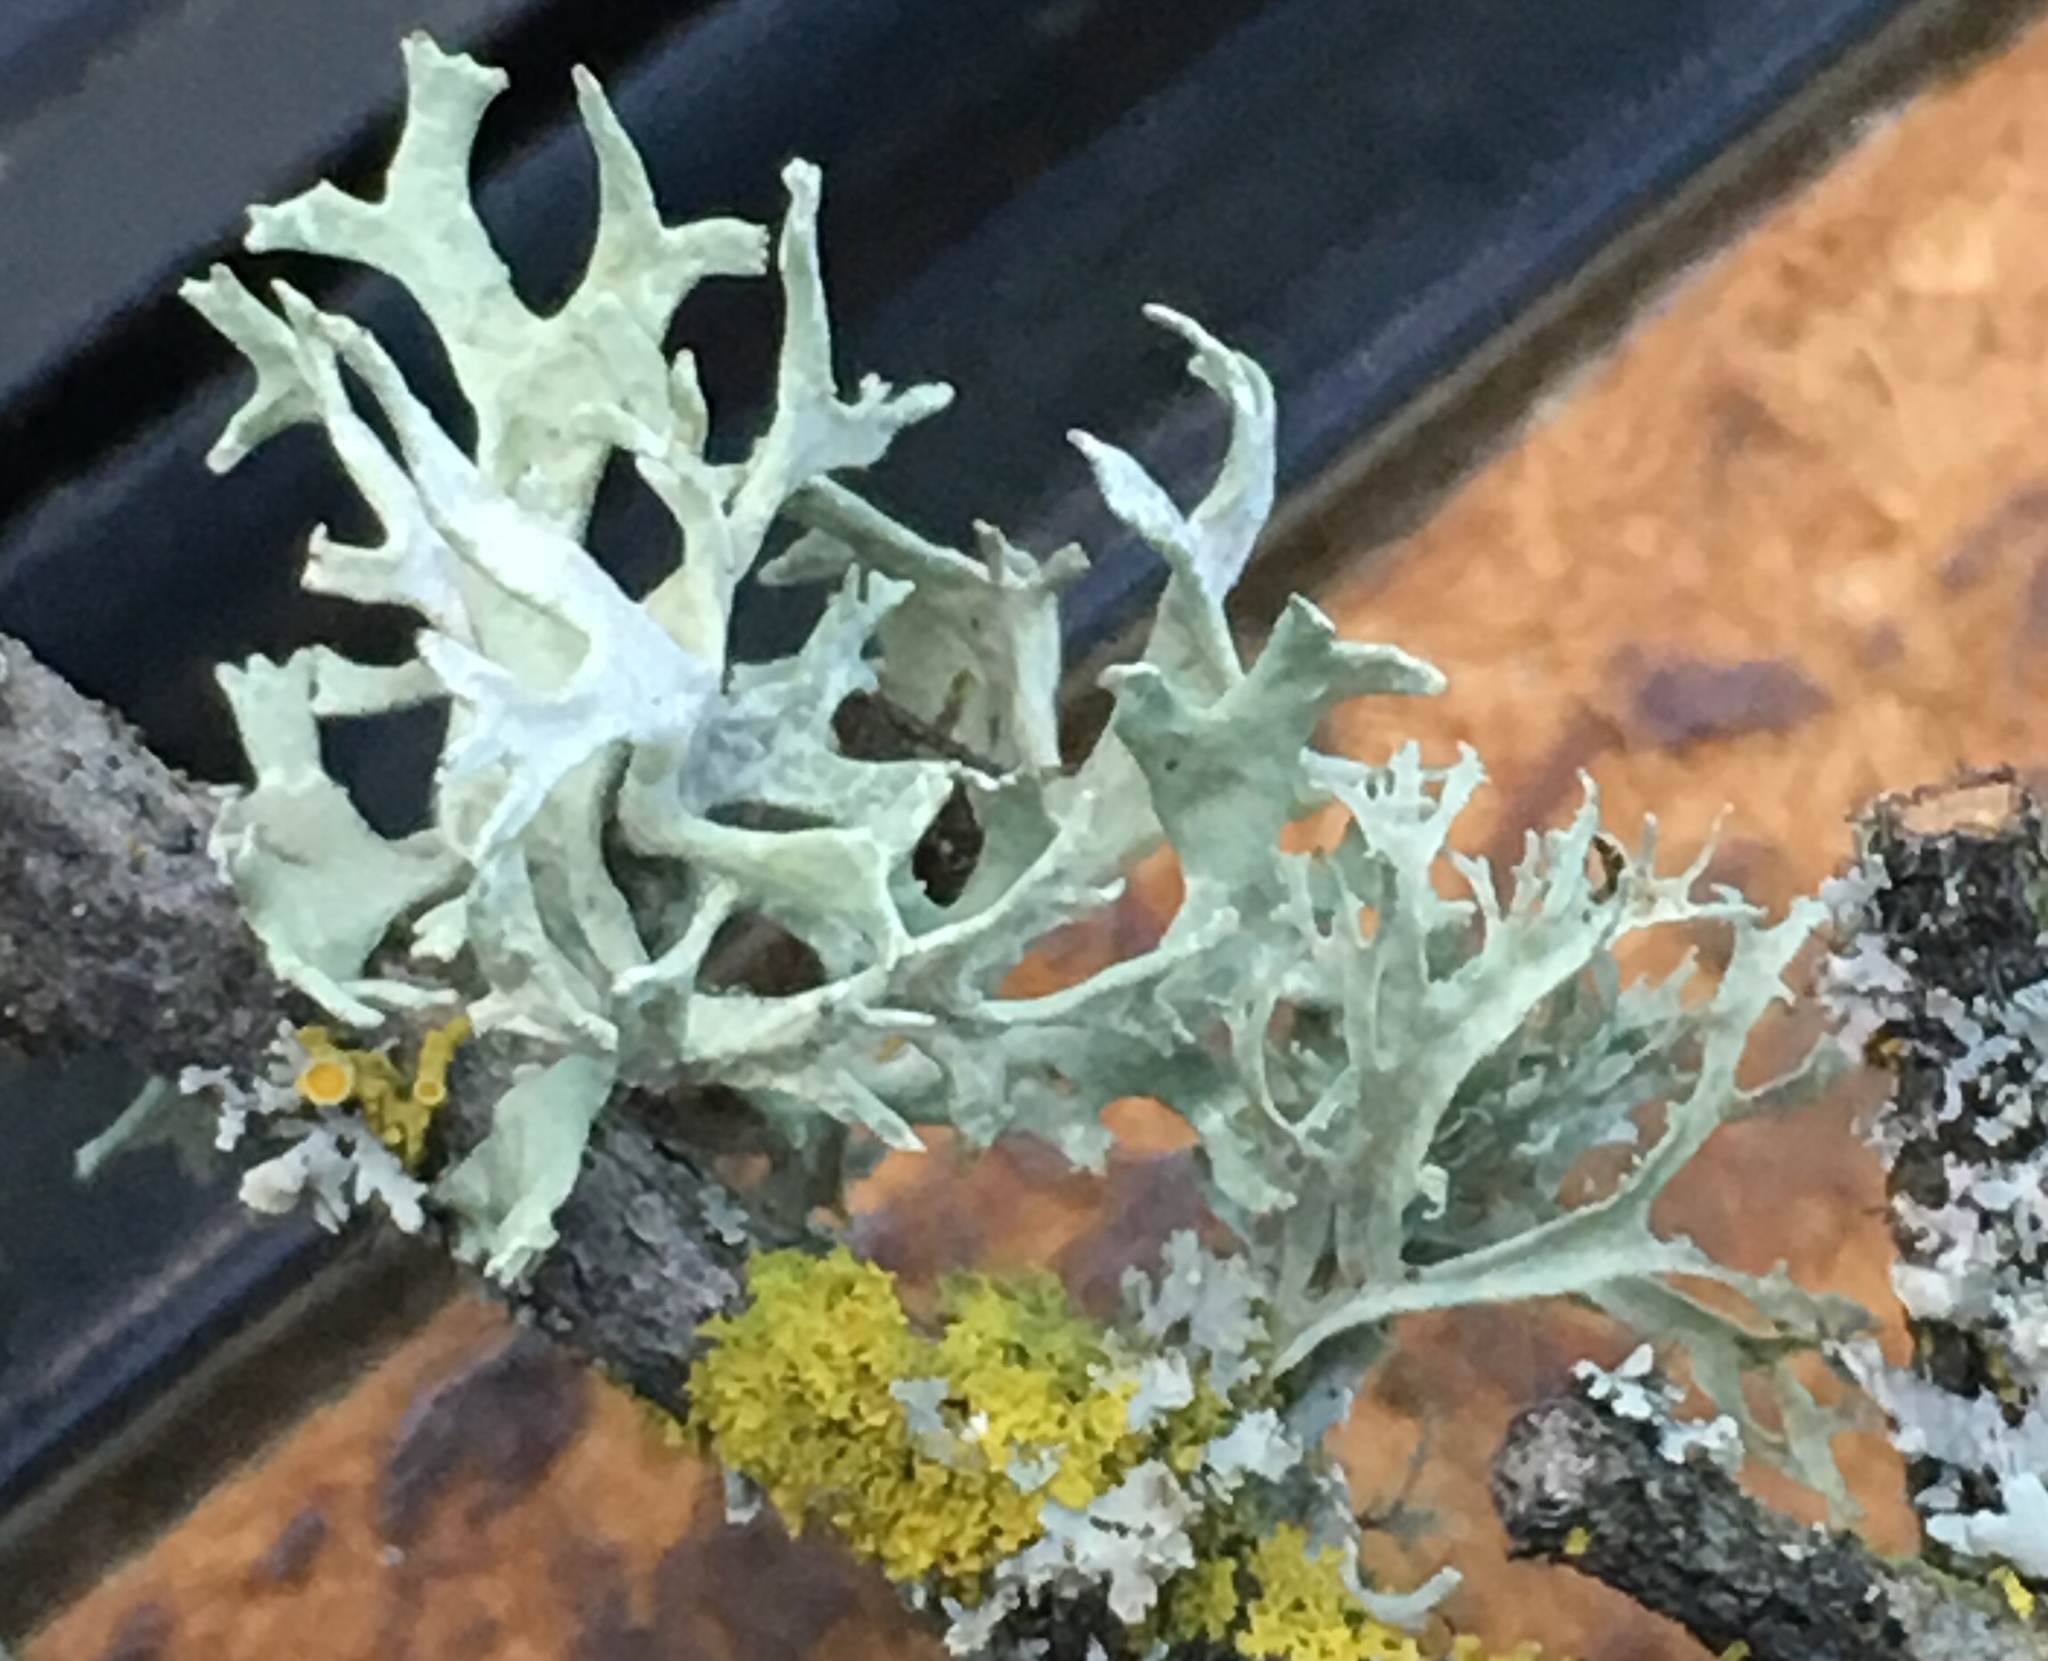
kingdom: Fungi
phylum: Ascomycota
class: Lecanoromycetes
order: Lecanorales
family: Parmeliaceae
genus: Evernia
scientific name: Evernia prunastri
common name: Oak moss
